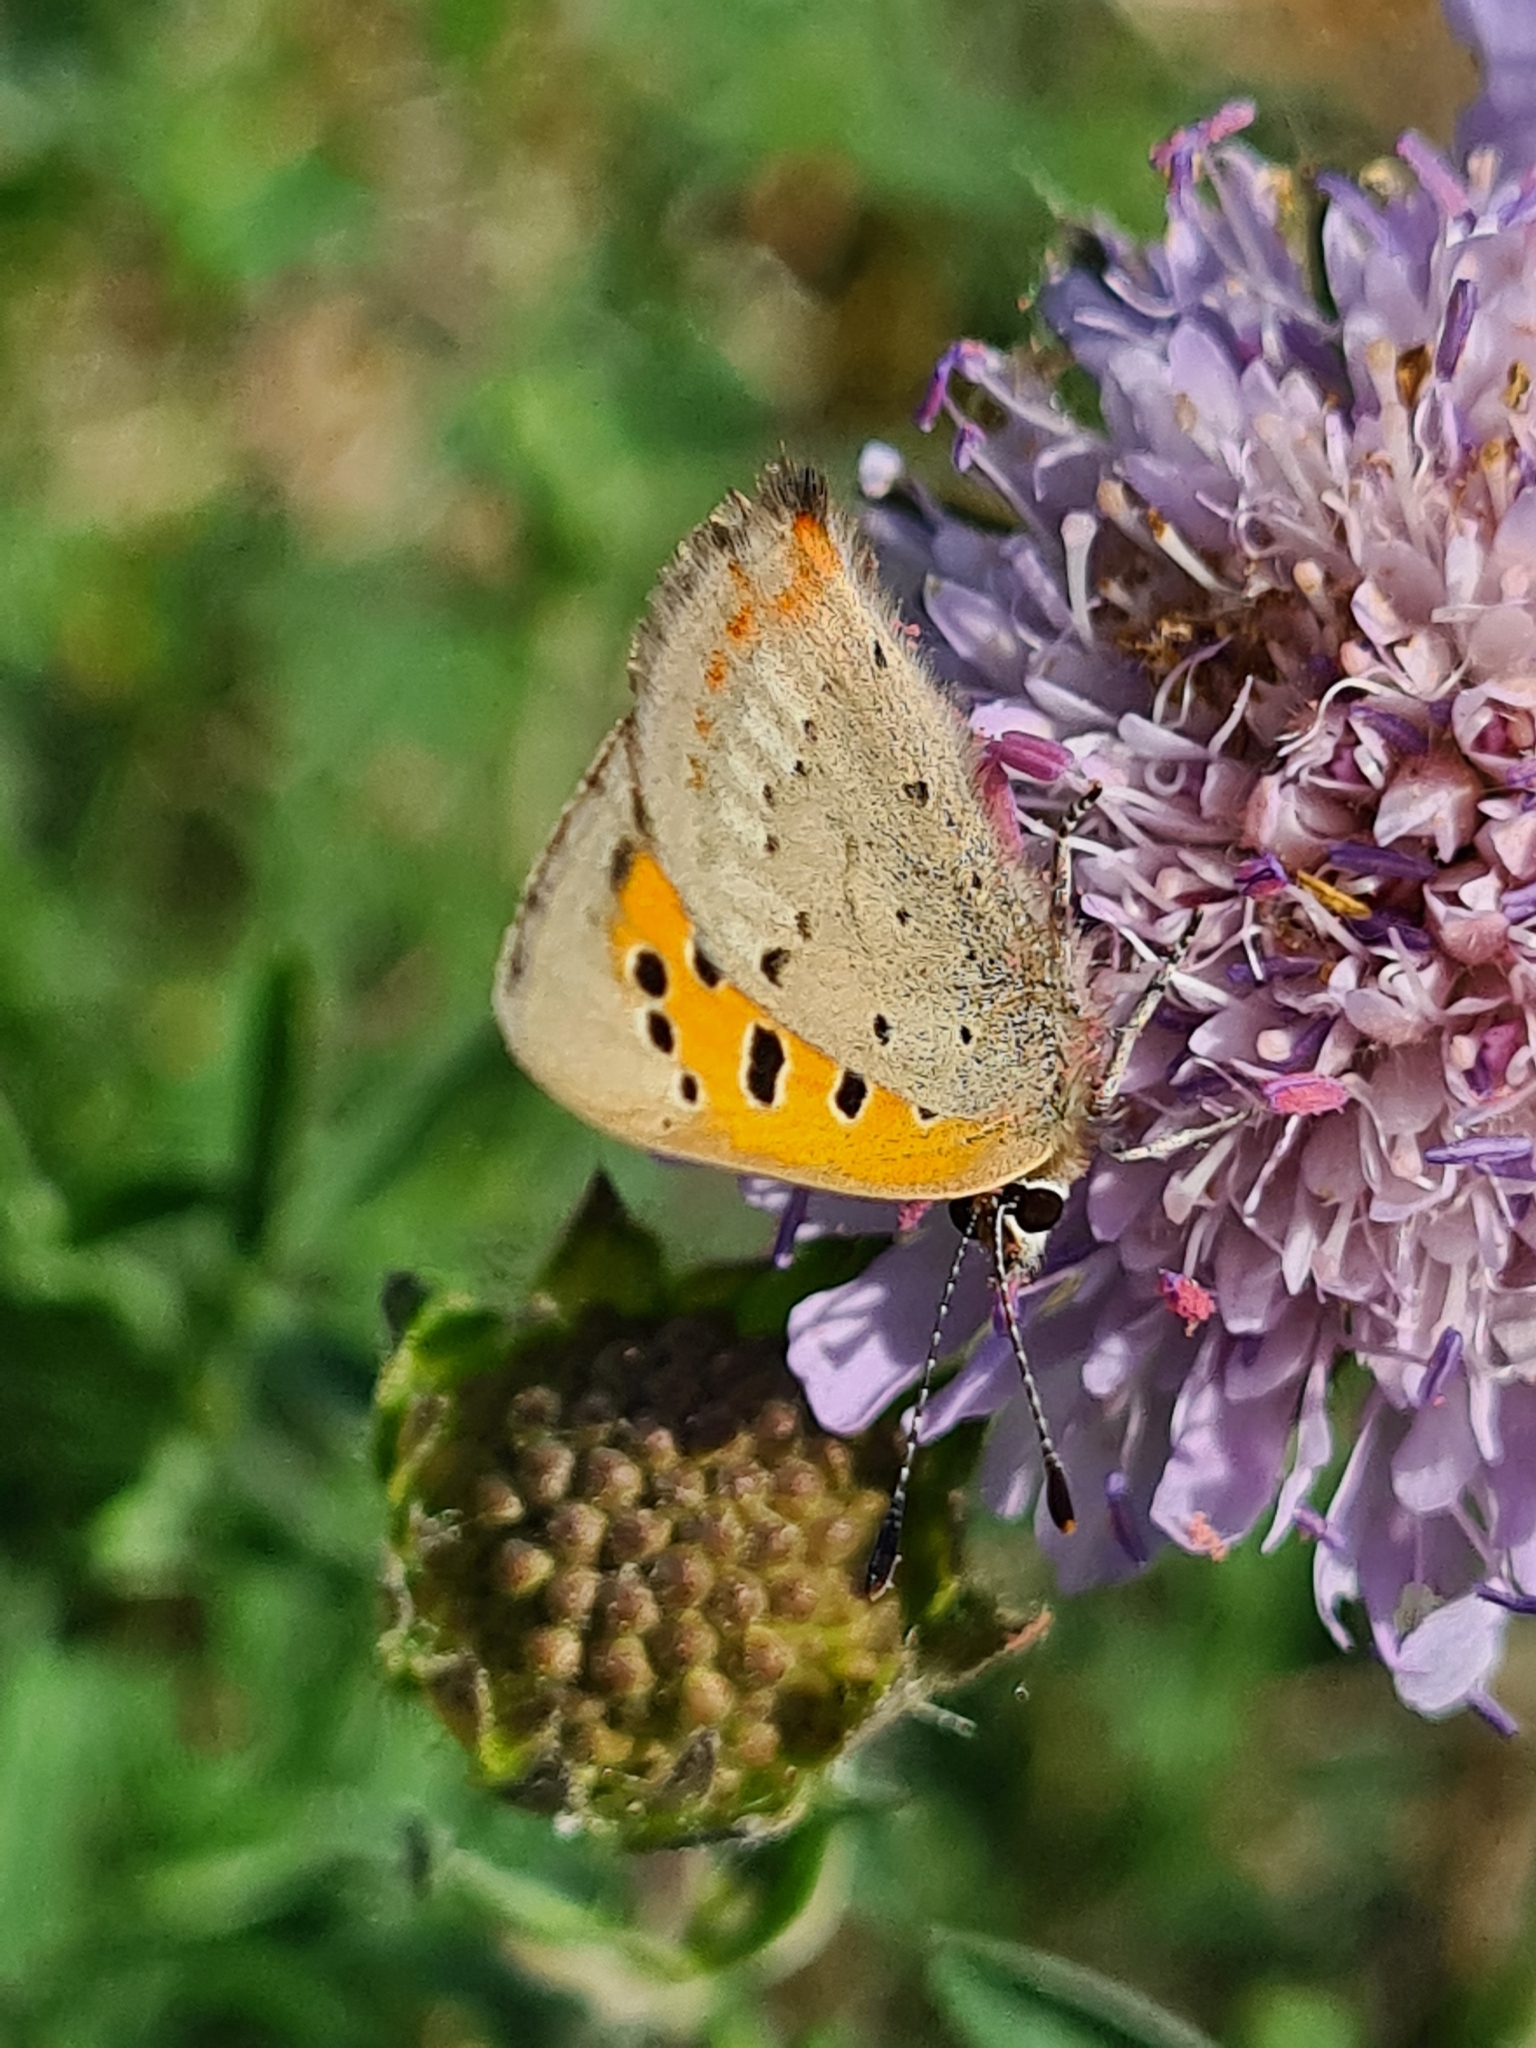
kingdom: Animalia
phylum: Arthropoda
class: Insecta
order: Lepidoptera
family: Lycaenidae
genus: Lycaena
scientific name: Lycaena phlaeas
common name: Small copper
